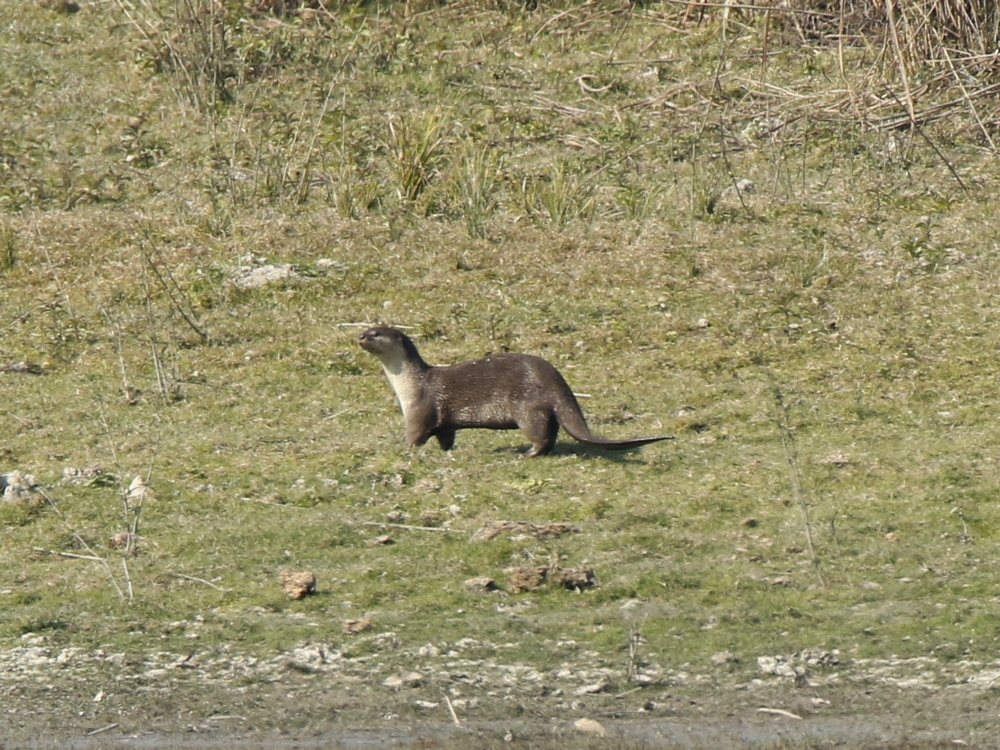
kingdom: Animalia
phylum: Chordata
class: Mammalia
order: Carnivora
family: Mustelidae
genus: Lutrogale
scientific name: Lutrogale perspicillata
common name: Smooth-coated otter
